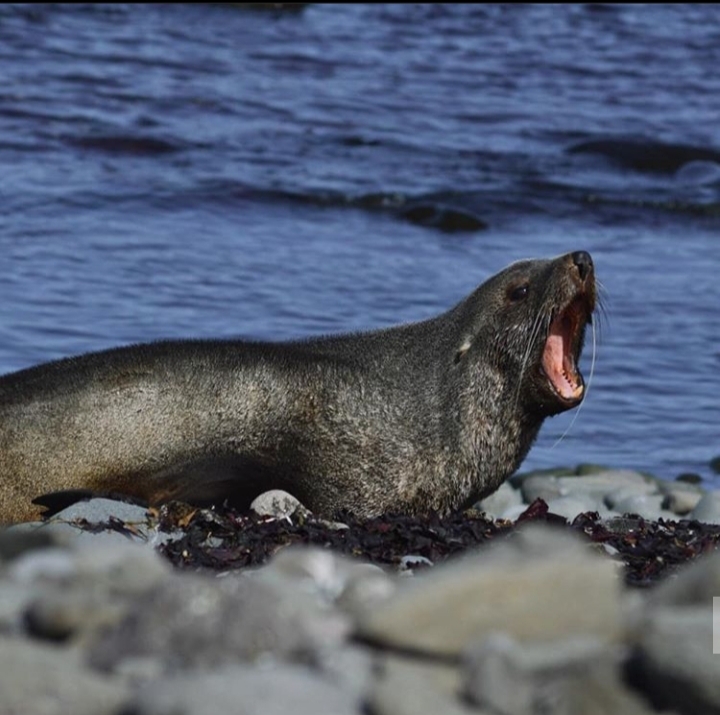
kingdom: Animalia
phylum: Chordata
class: Mammalia
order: Carnivora
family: Otariidae
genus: Arctocephalus
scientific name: Arctocephalus gazella
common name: Antarctic fur seal
